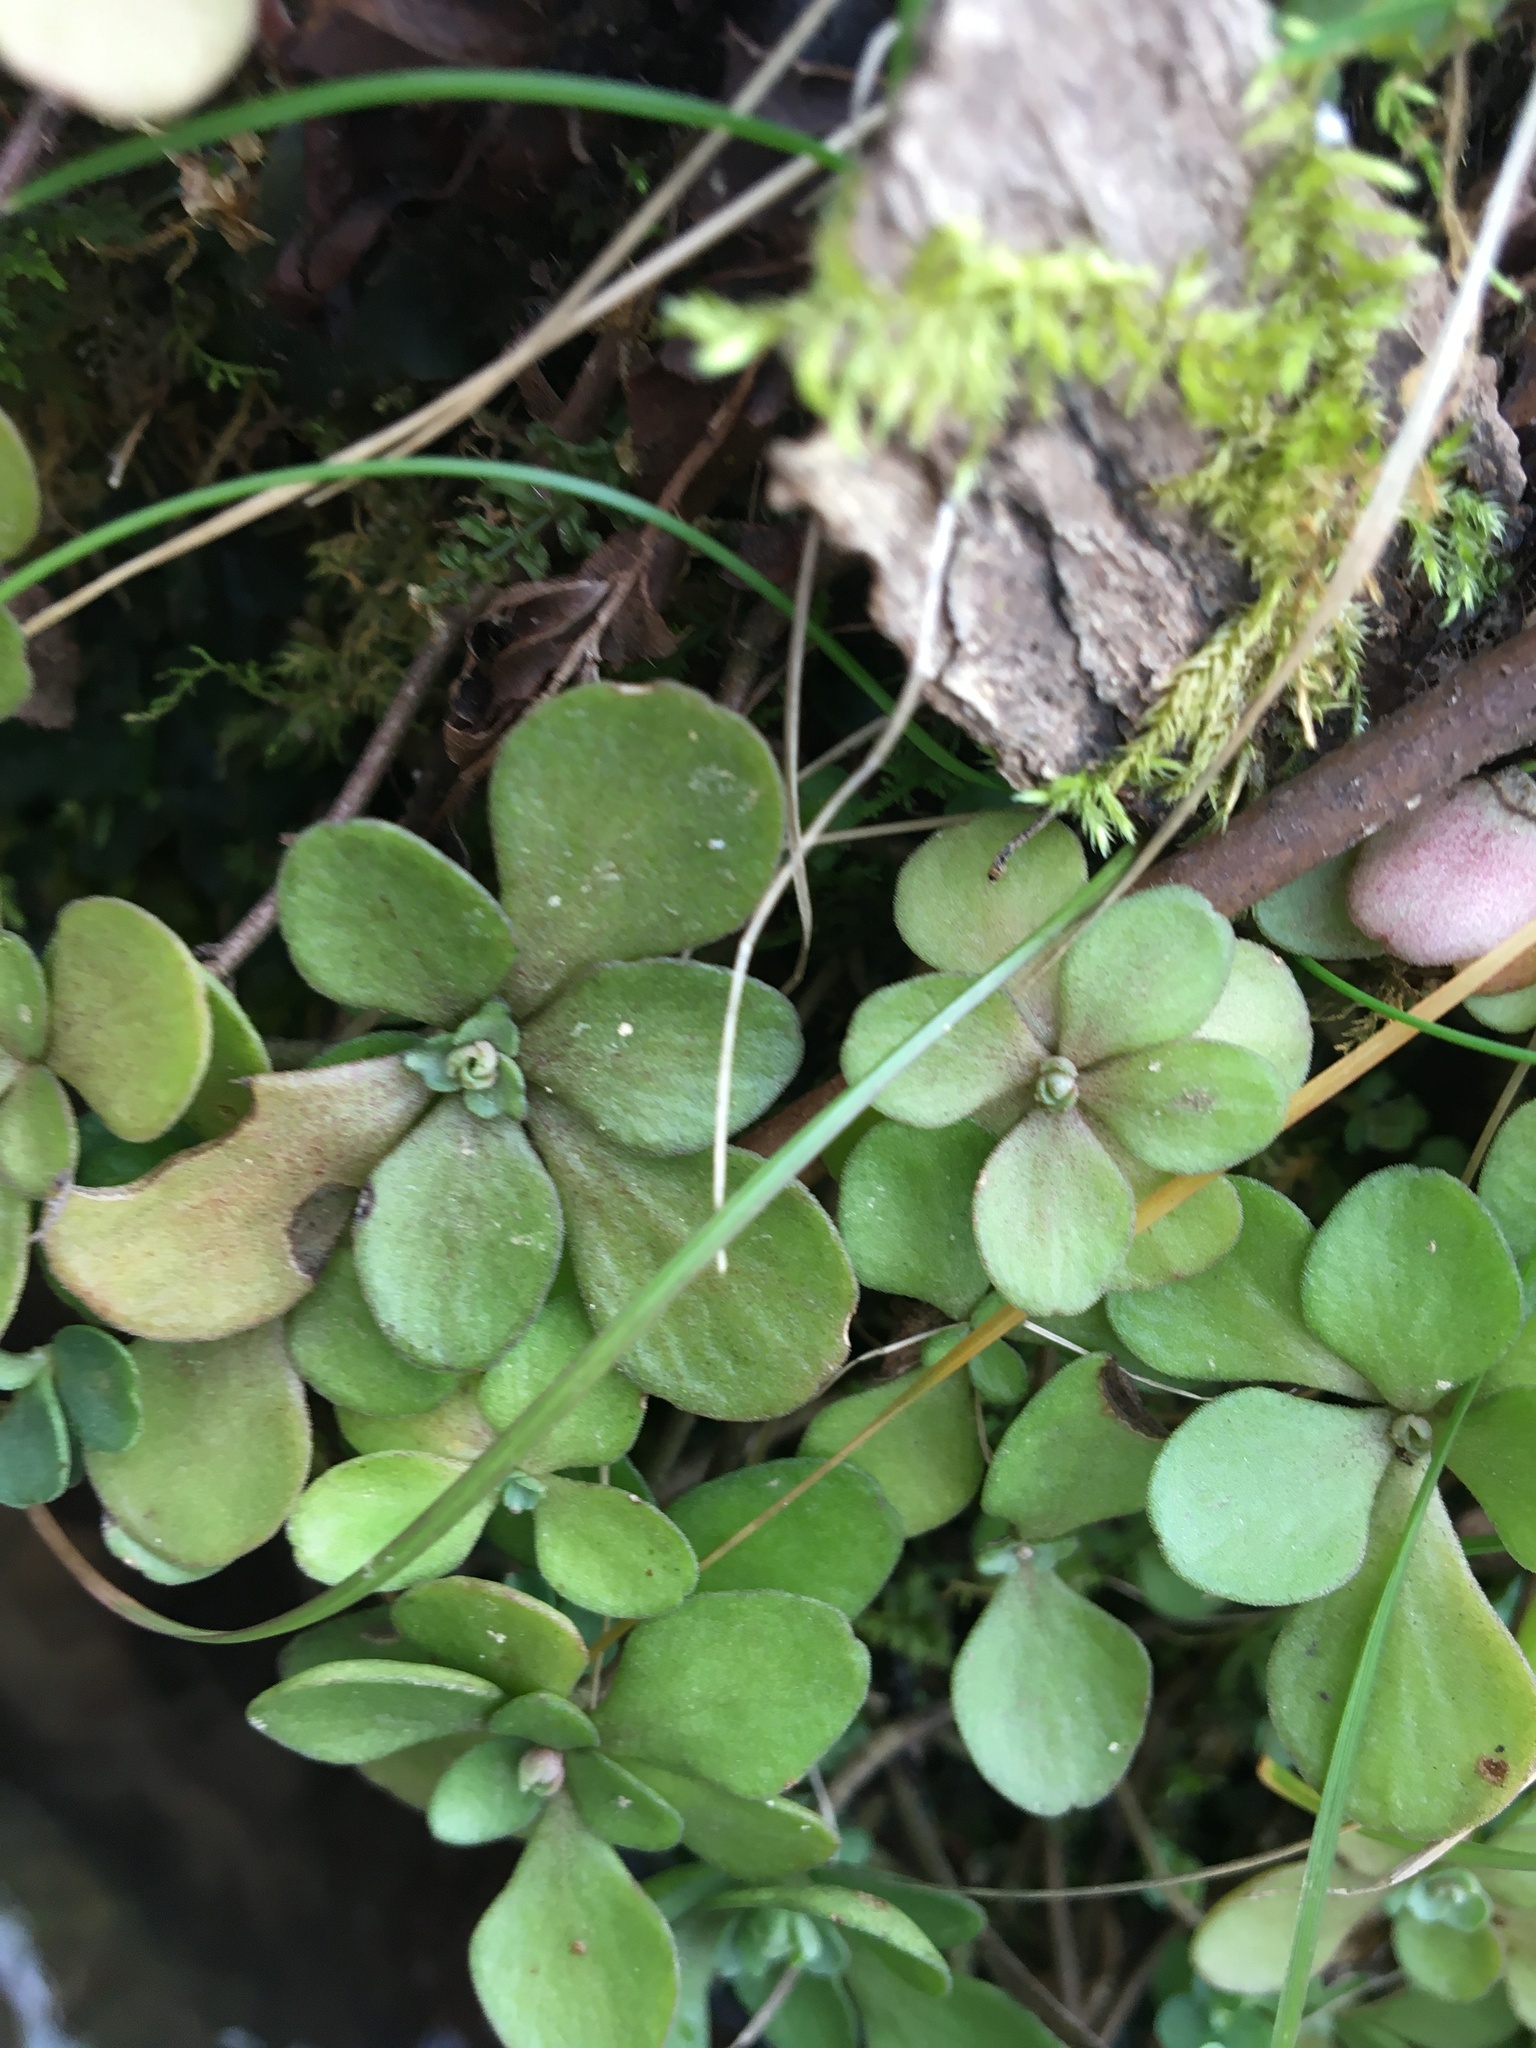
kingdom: Plantae
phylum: Tracheophyta
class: Magnoliopsida
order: Saxifragales
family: Crassulaceae
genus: Sedum
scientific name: Sedum ternatum
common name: Wild stonecrop
